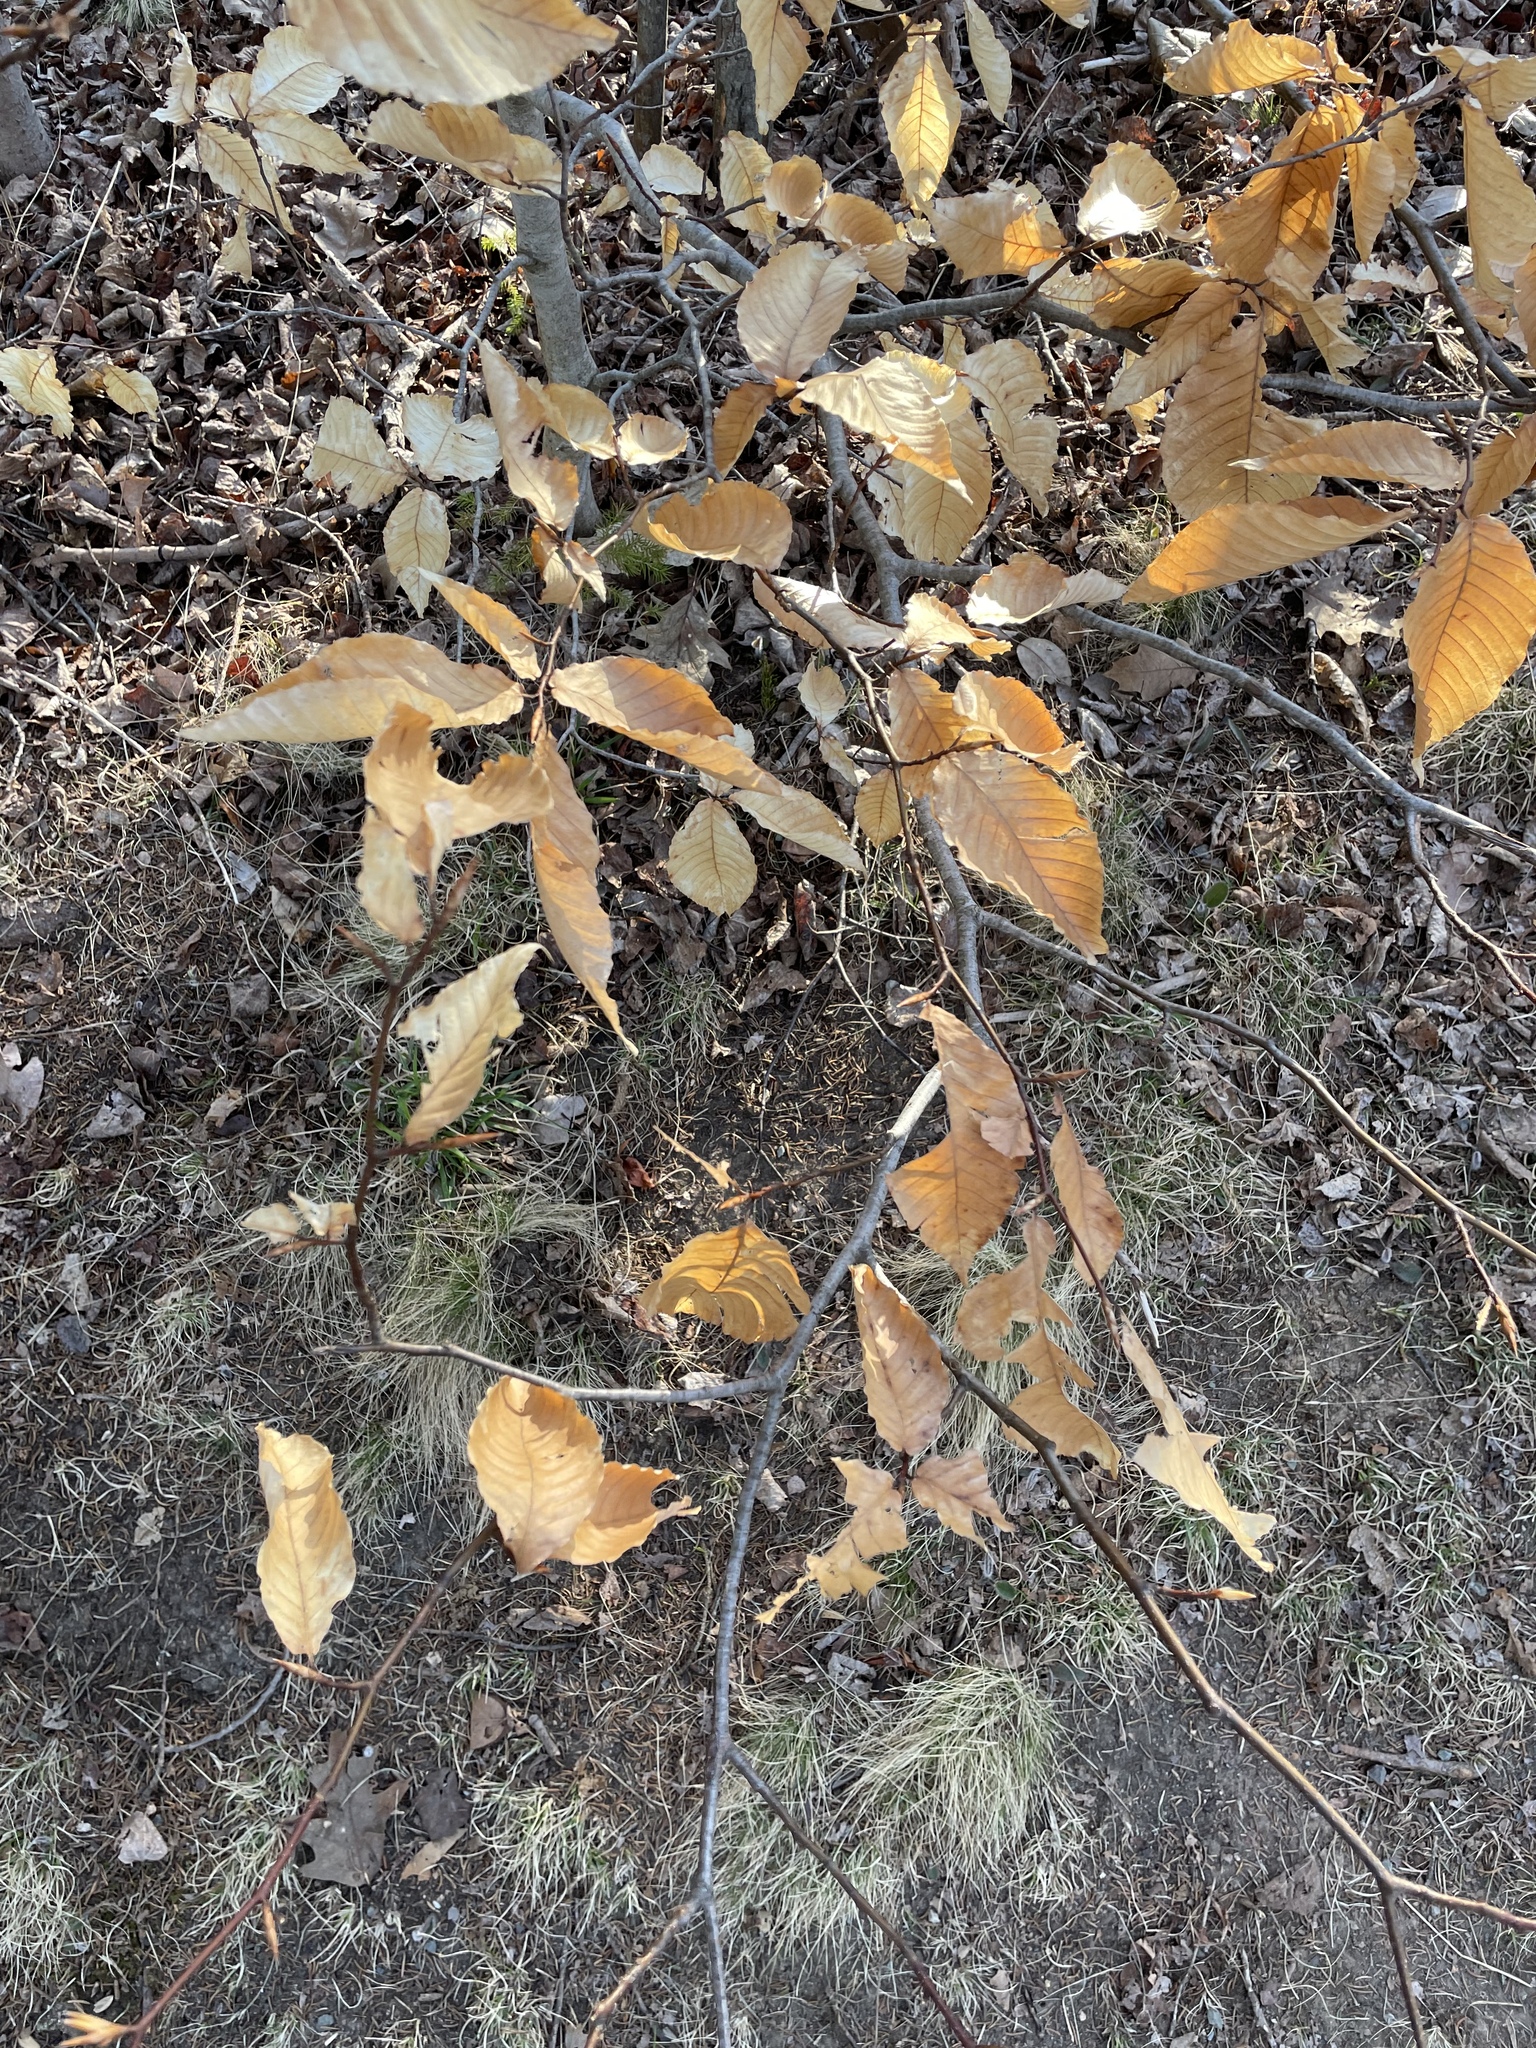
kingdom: Plantae
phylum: Tracheophyta
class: Magnoliopsida
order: Fagales
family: Fagaceae
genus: Fagus
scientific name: Fagus grandifolia
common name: American beech
